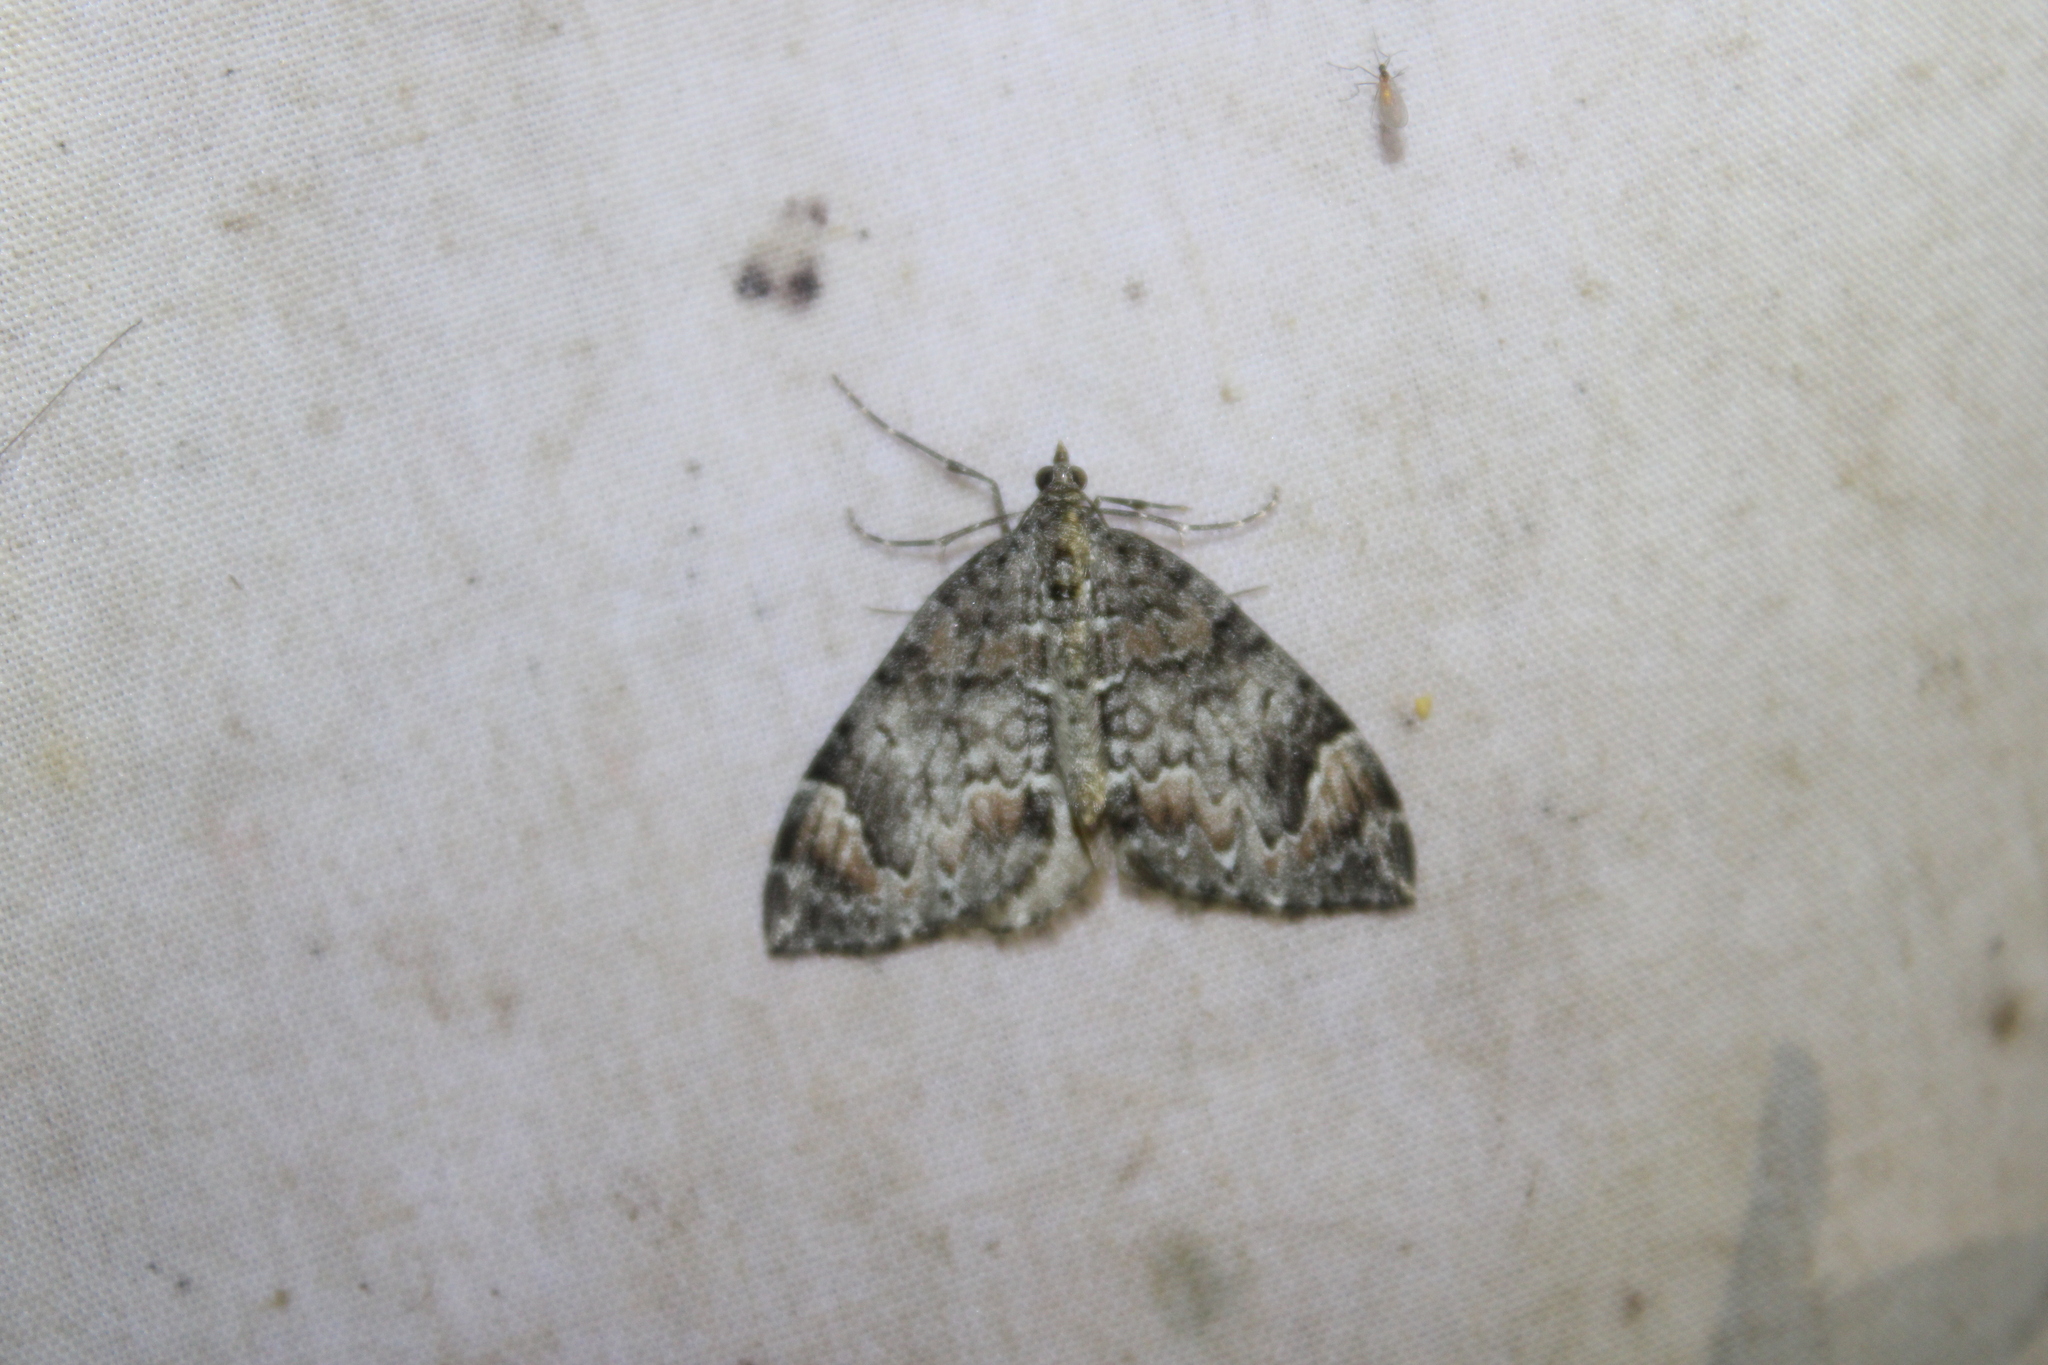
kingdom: Animalia
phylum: Arthropoda
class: Insecta
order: Lepidoptera
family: Geometridae
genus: Dysstroma
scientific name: Dysstroma citrata
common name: Dark marbled carpet
